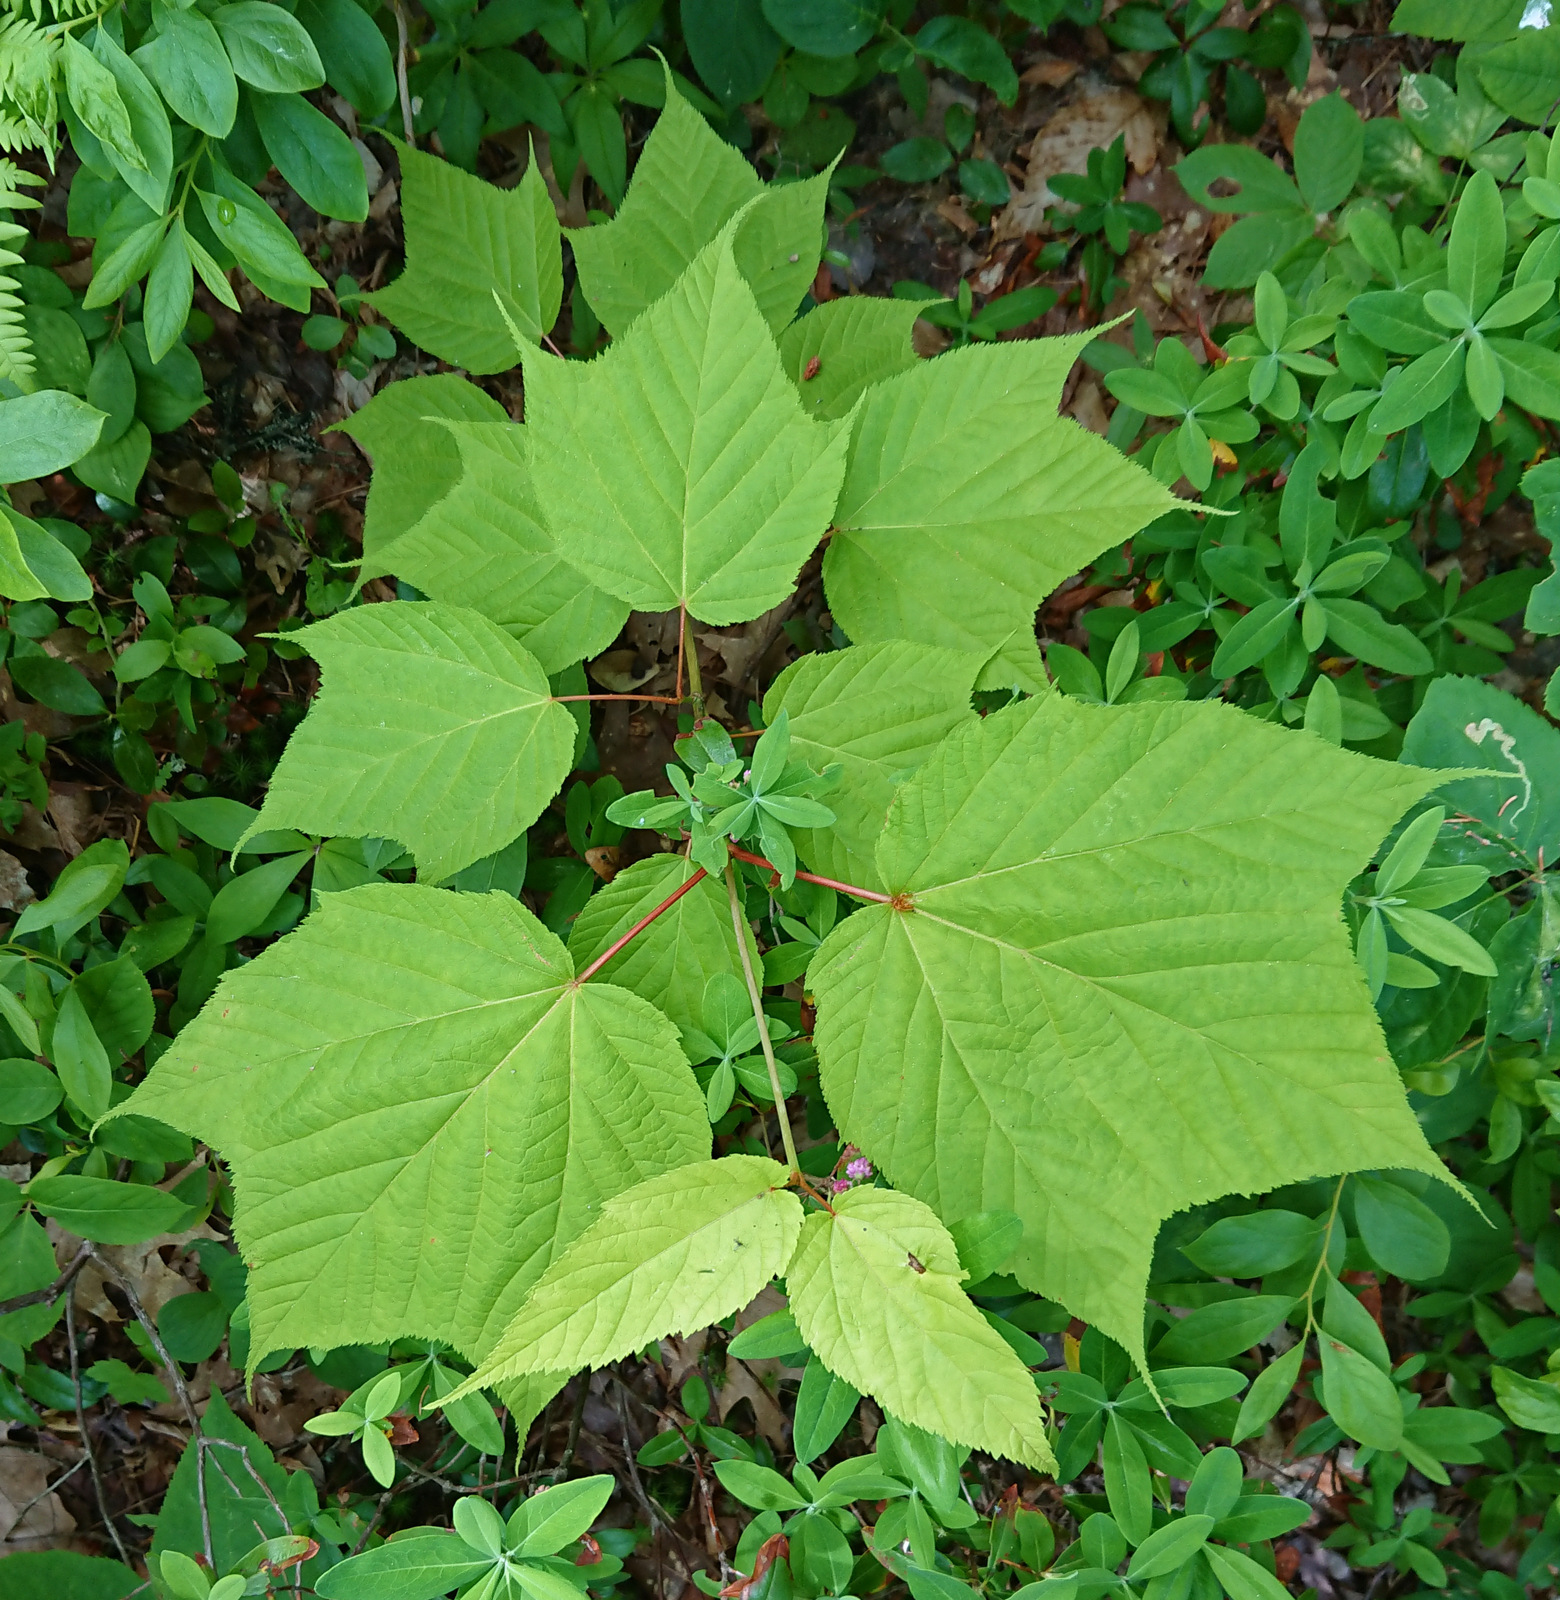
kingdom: Plantae
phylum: Tracheophyta
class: Magnoliopsida
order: Sapindales
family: Sapindaceae
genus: Acer
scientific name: Acer pensylvanicum
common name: Moosewood
